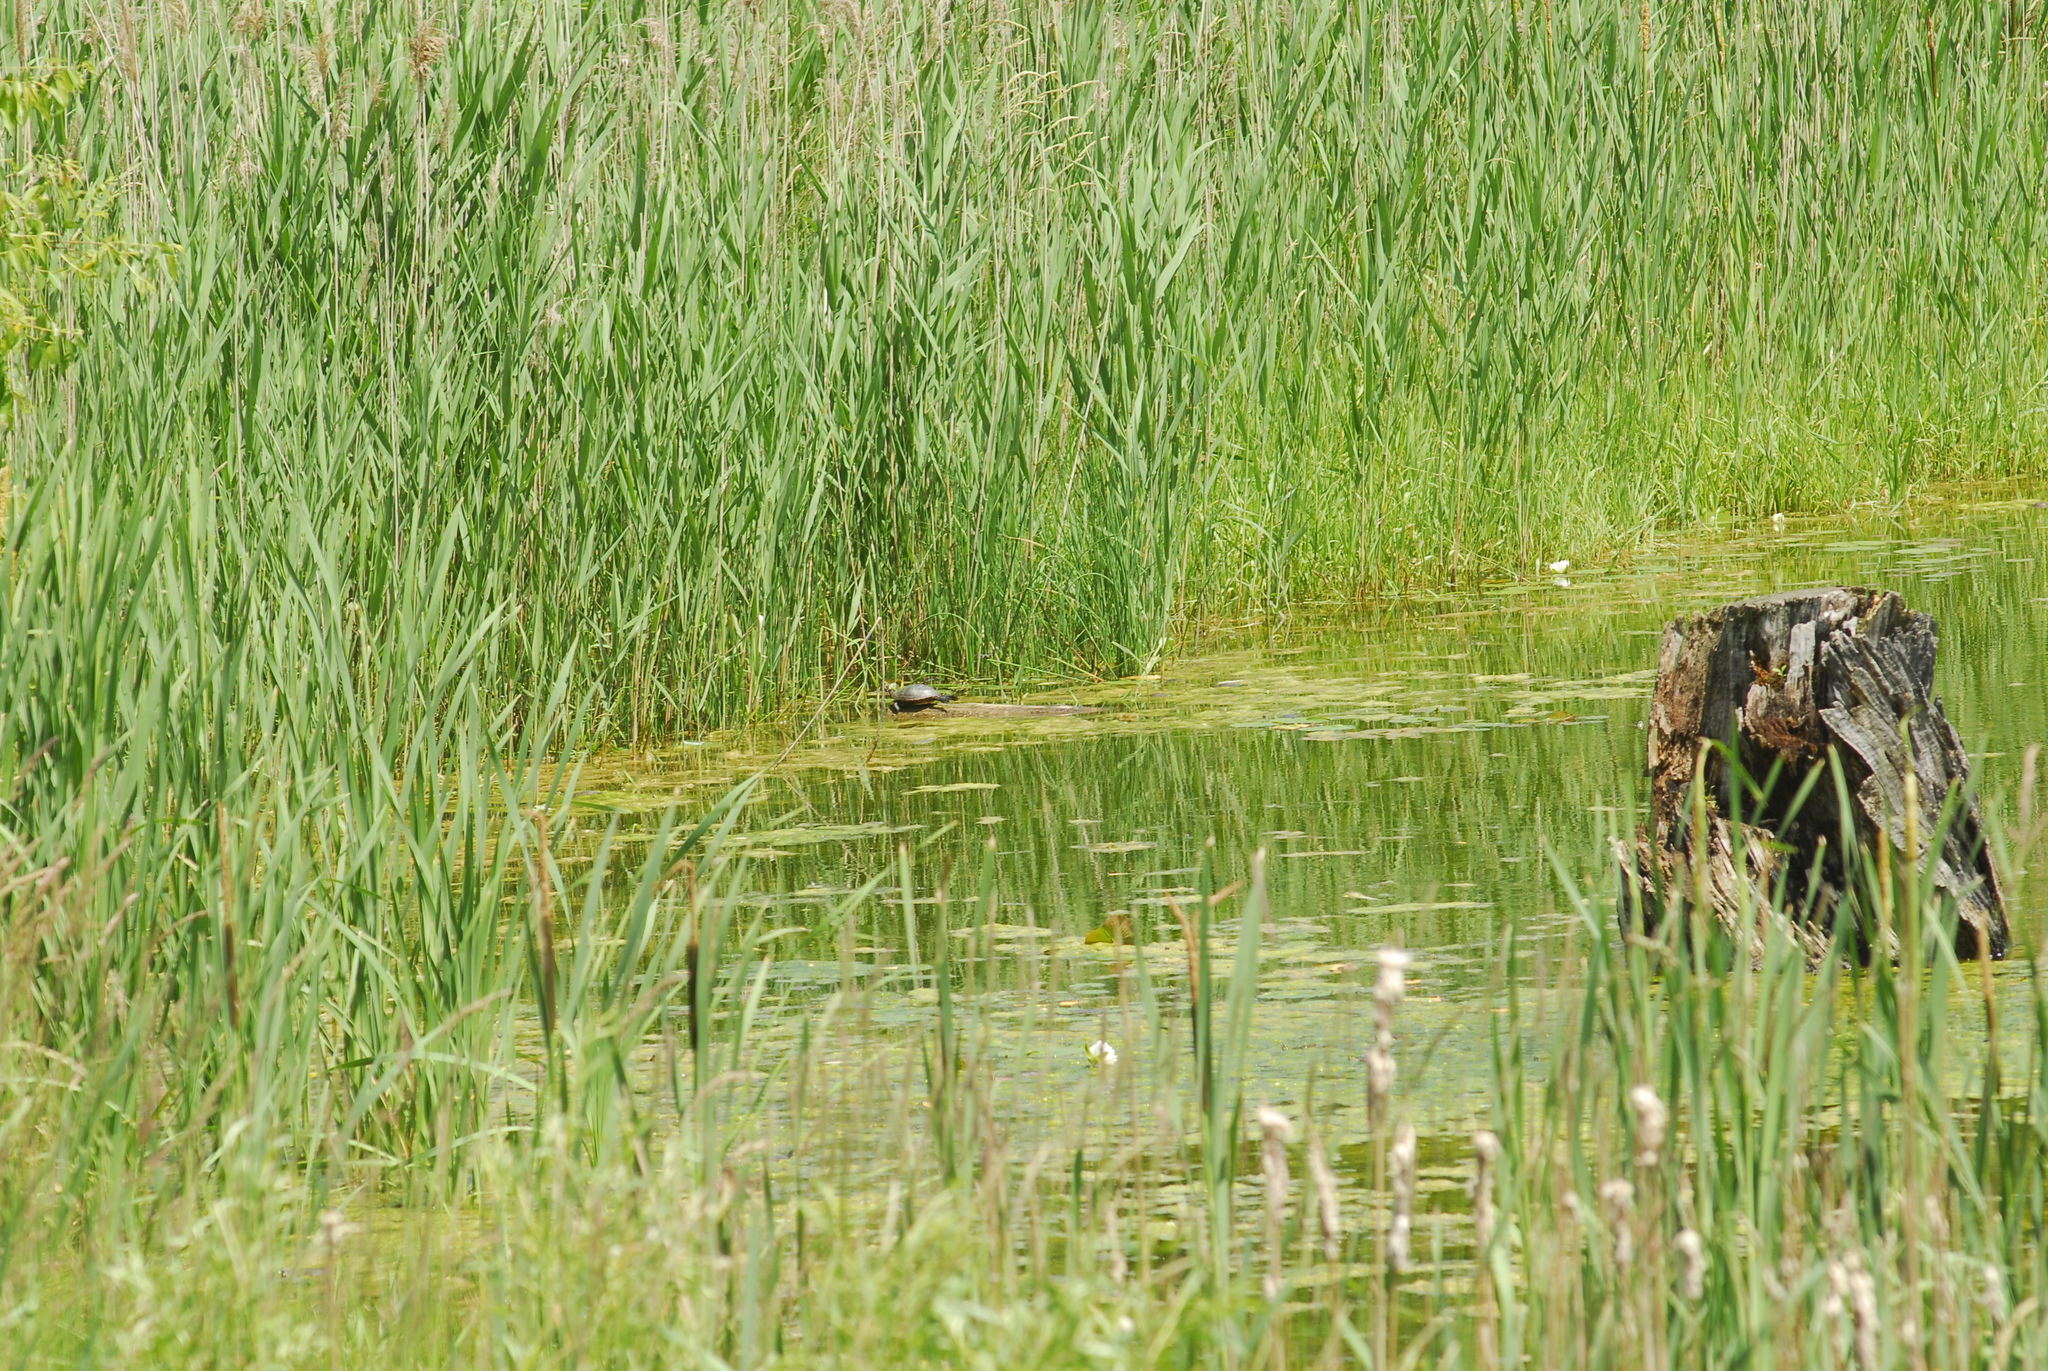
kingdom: Animalia
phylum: Chordata
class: Testudines
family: Emydidae
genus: Chrysemys
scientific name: Chrysemys picta
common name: Painted turtle
